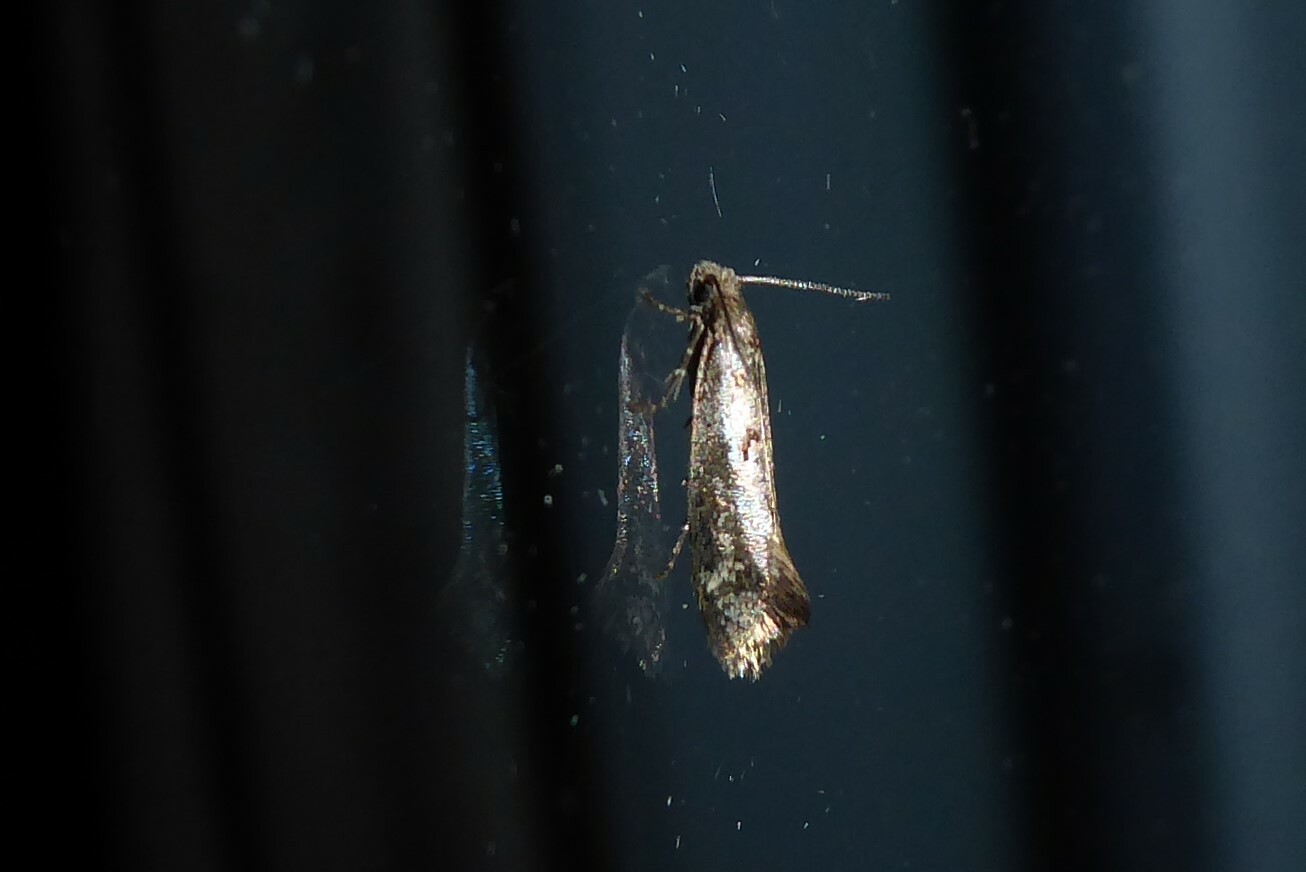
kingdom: Animalia
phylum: Arthropoda
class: Insecta
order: Lepidoptera
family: Tineidae
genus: Tinea
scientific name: Tinea mochlota
